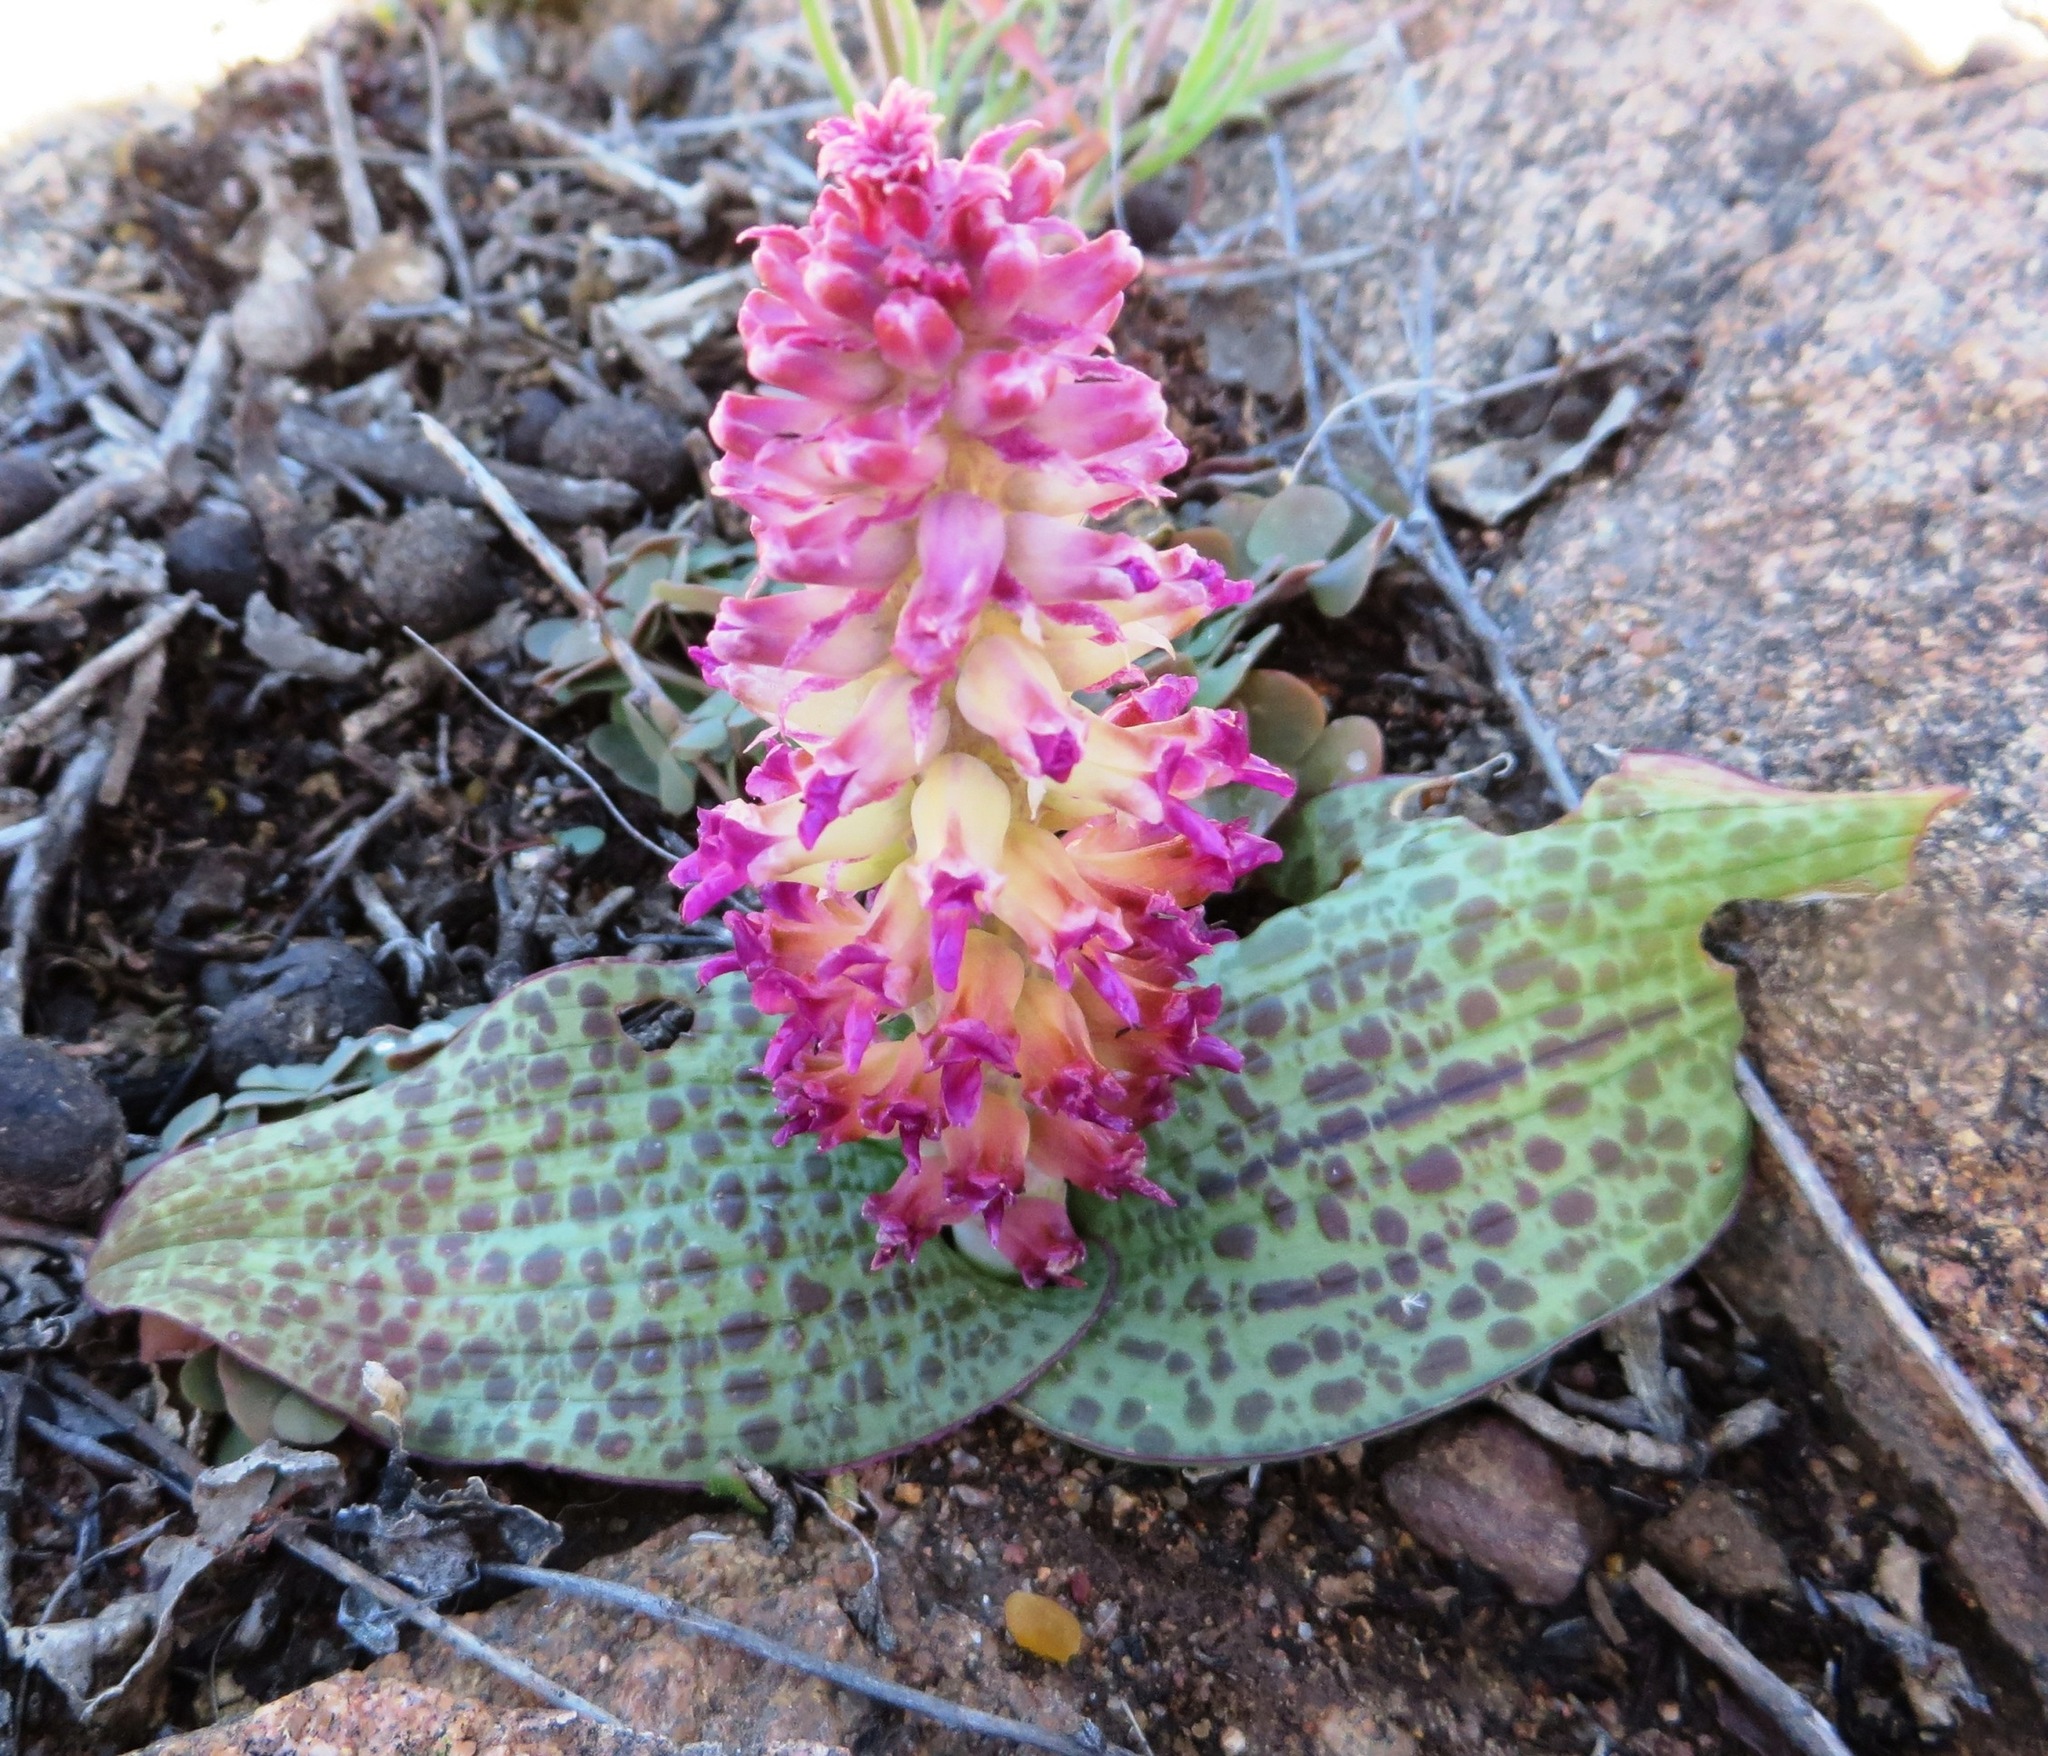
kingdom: Plantae
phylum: Tracheophyta
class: Liliopsida
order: Asparagales
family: Asparagaceae
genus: Lachenalia
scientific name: Lachenalia carnosa
